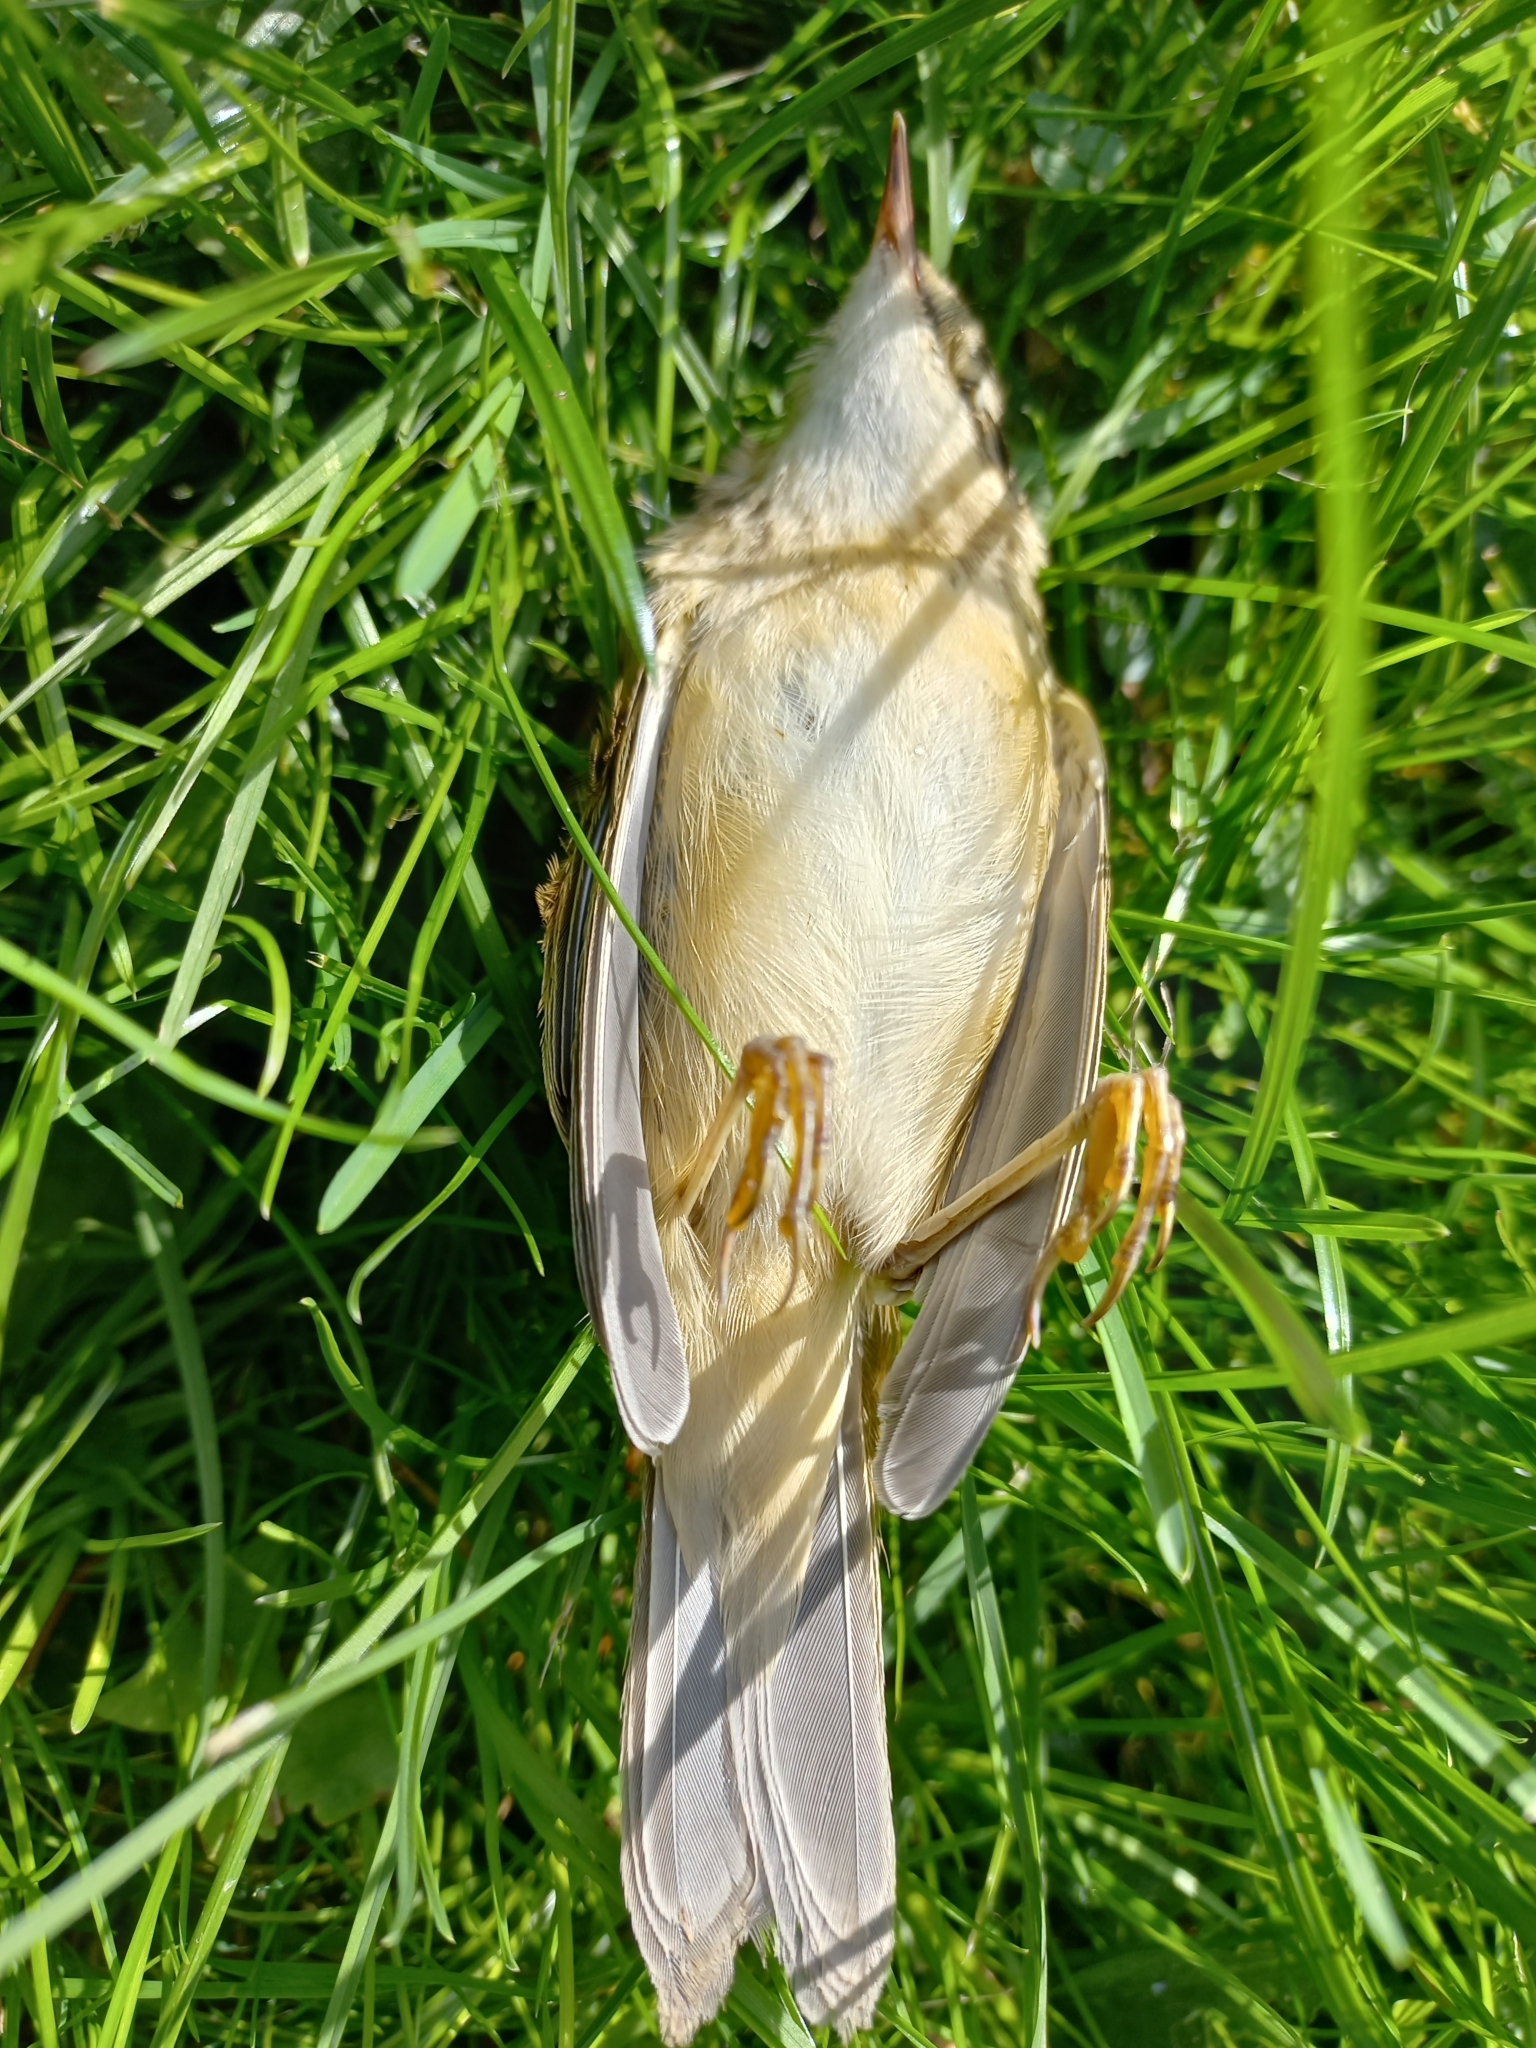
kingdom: Animalia
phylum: Chordata
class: Aves
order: Passeriformes
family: Acrocephalidae
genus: Acrocephalus
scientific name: Acrocephalus schoenobaenus
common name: Sedge warbler
